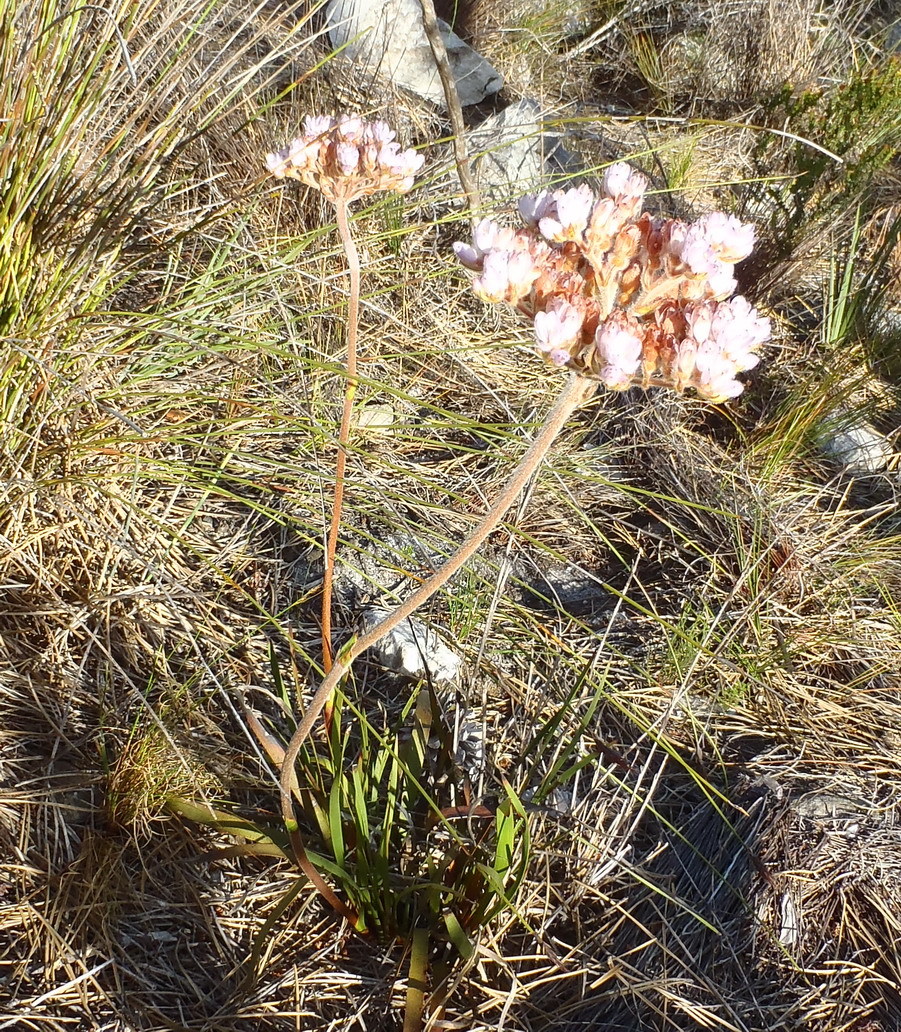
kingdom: Plantae
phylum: Tracheophyta
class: Liliopsida
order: Commelinales
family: Haemodoraceae
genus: Dilatris
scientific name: Dilatris pillansii
